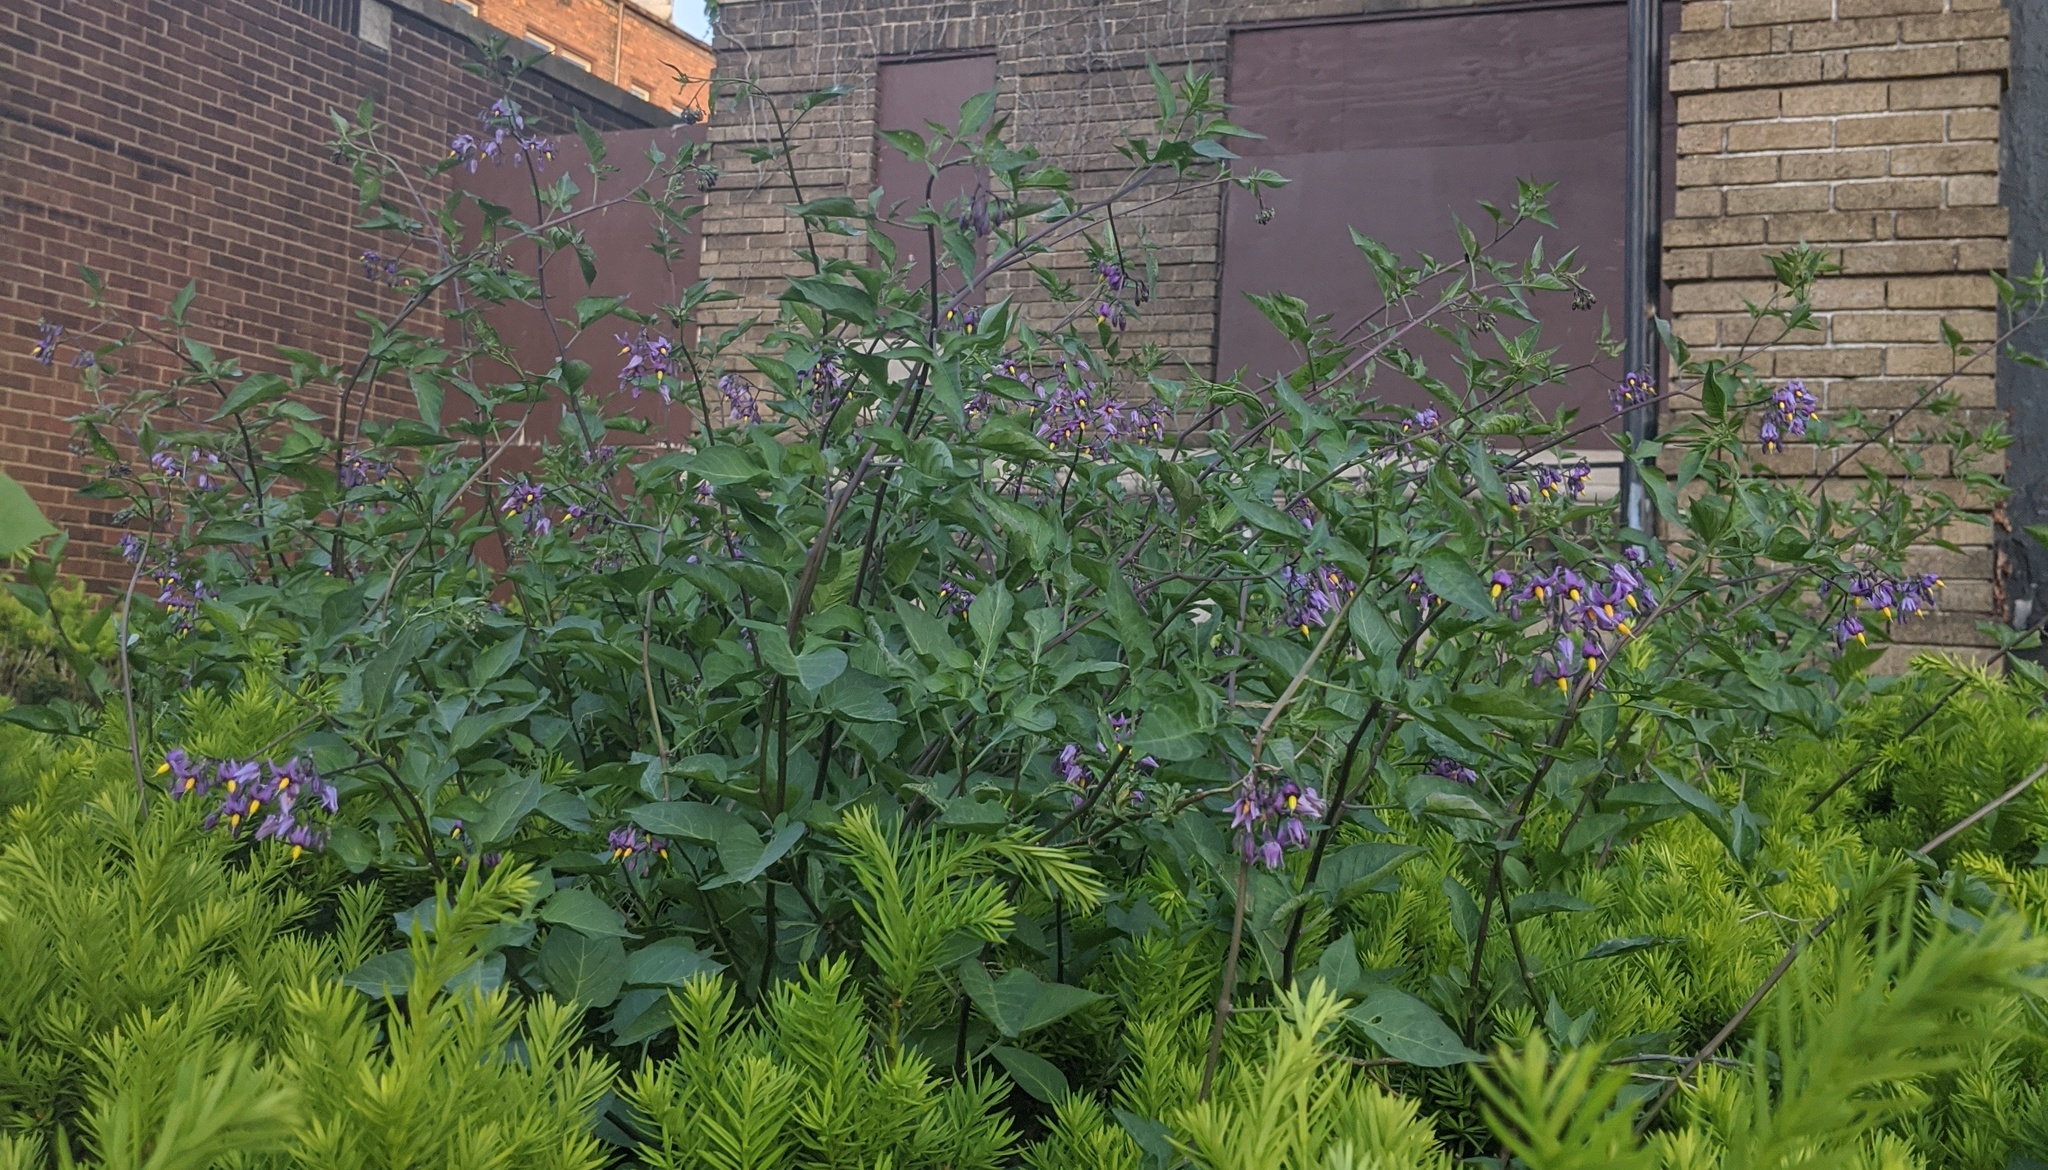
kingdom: Plantae
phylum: Tracheophyta
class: Magnoliopsida
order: Solanales
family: Solanaceae
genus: Solanum
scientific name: Solanum dulcamara
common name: Climbing nightshade
